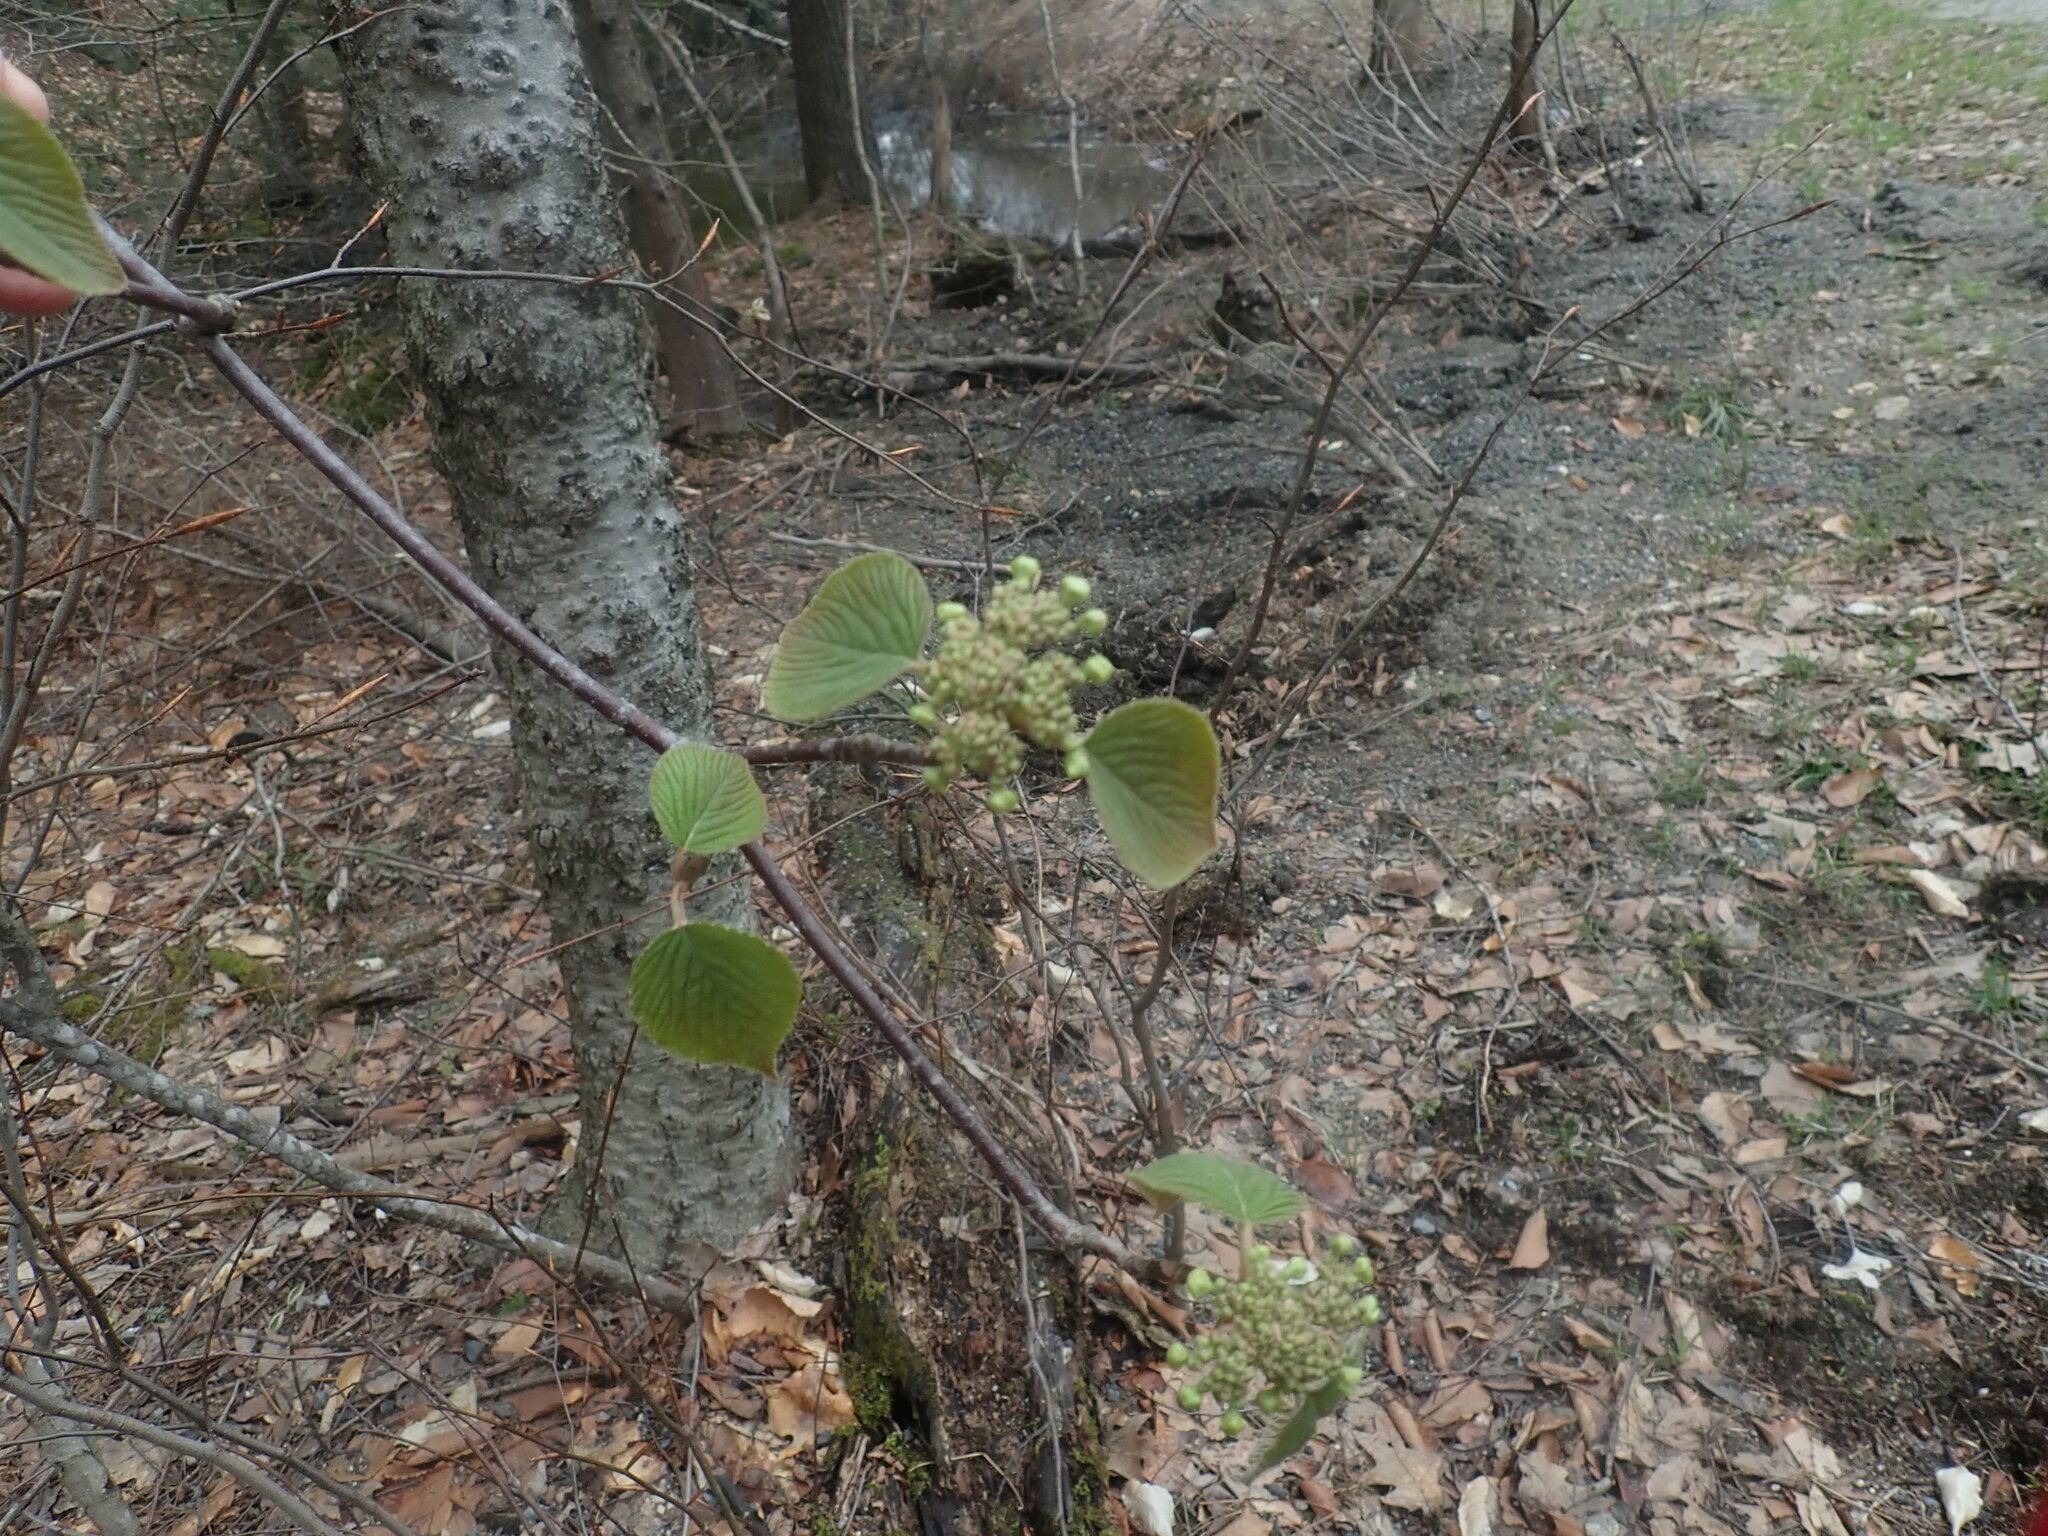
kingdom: Plantae
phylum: Tracheophyta
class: Magnoliopsida
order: Dipsacales
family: Viburnaceae
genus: Viburnum
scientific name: Viburnum lantanoides
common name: Hobblebush
